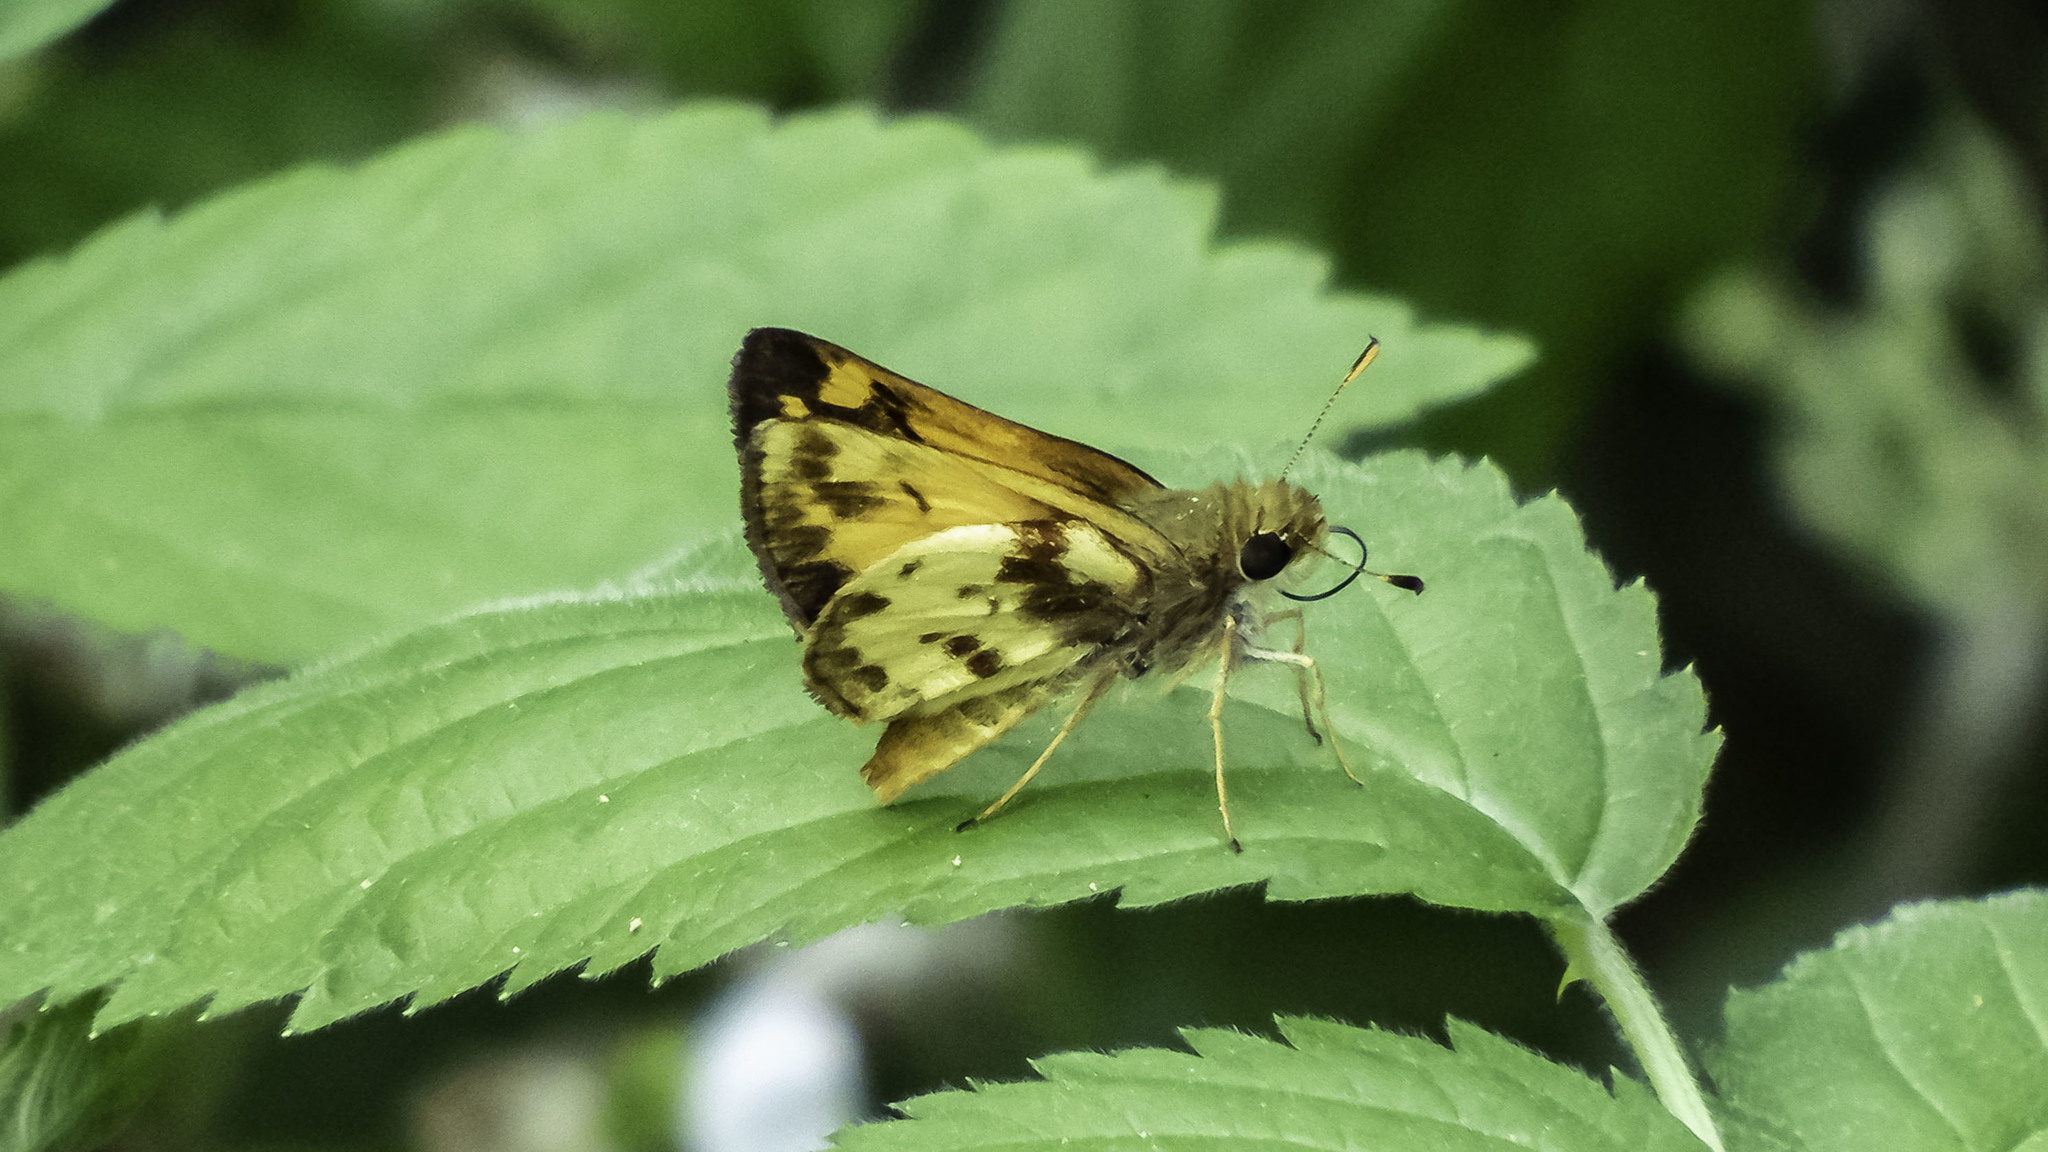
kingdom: Animalia
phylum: Arthropoda
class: Insecta
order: Lepidoptera
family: Hesperiidae
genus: Lon
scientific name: Lon zabulon
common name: Zabulon skipper
